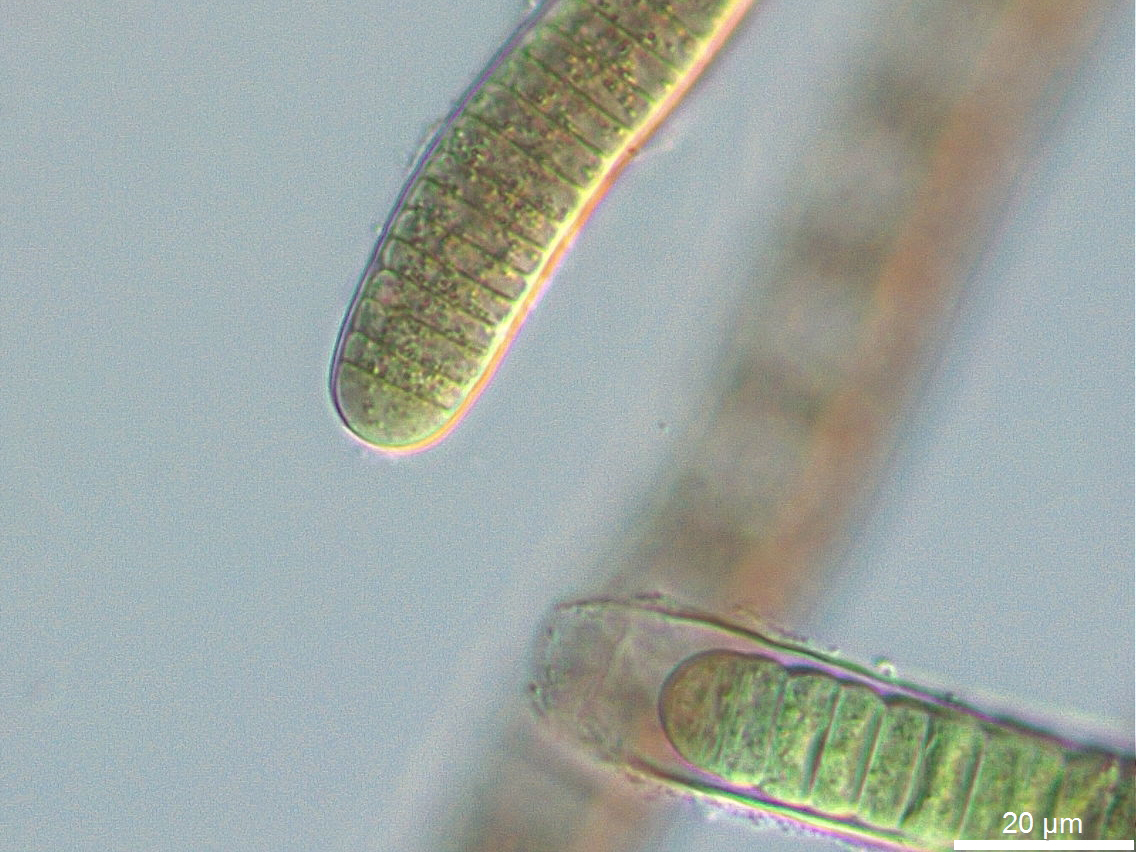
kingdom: Bacteria
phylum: Cyanobacteria
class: Cyanobacteriia
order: Cyanobacteriales
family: Scytonemataceae
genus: Scytonema
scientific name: Scytonema hofmanni
